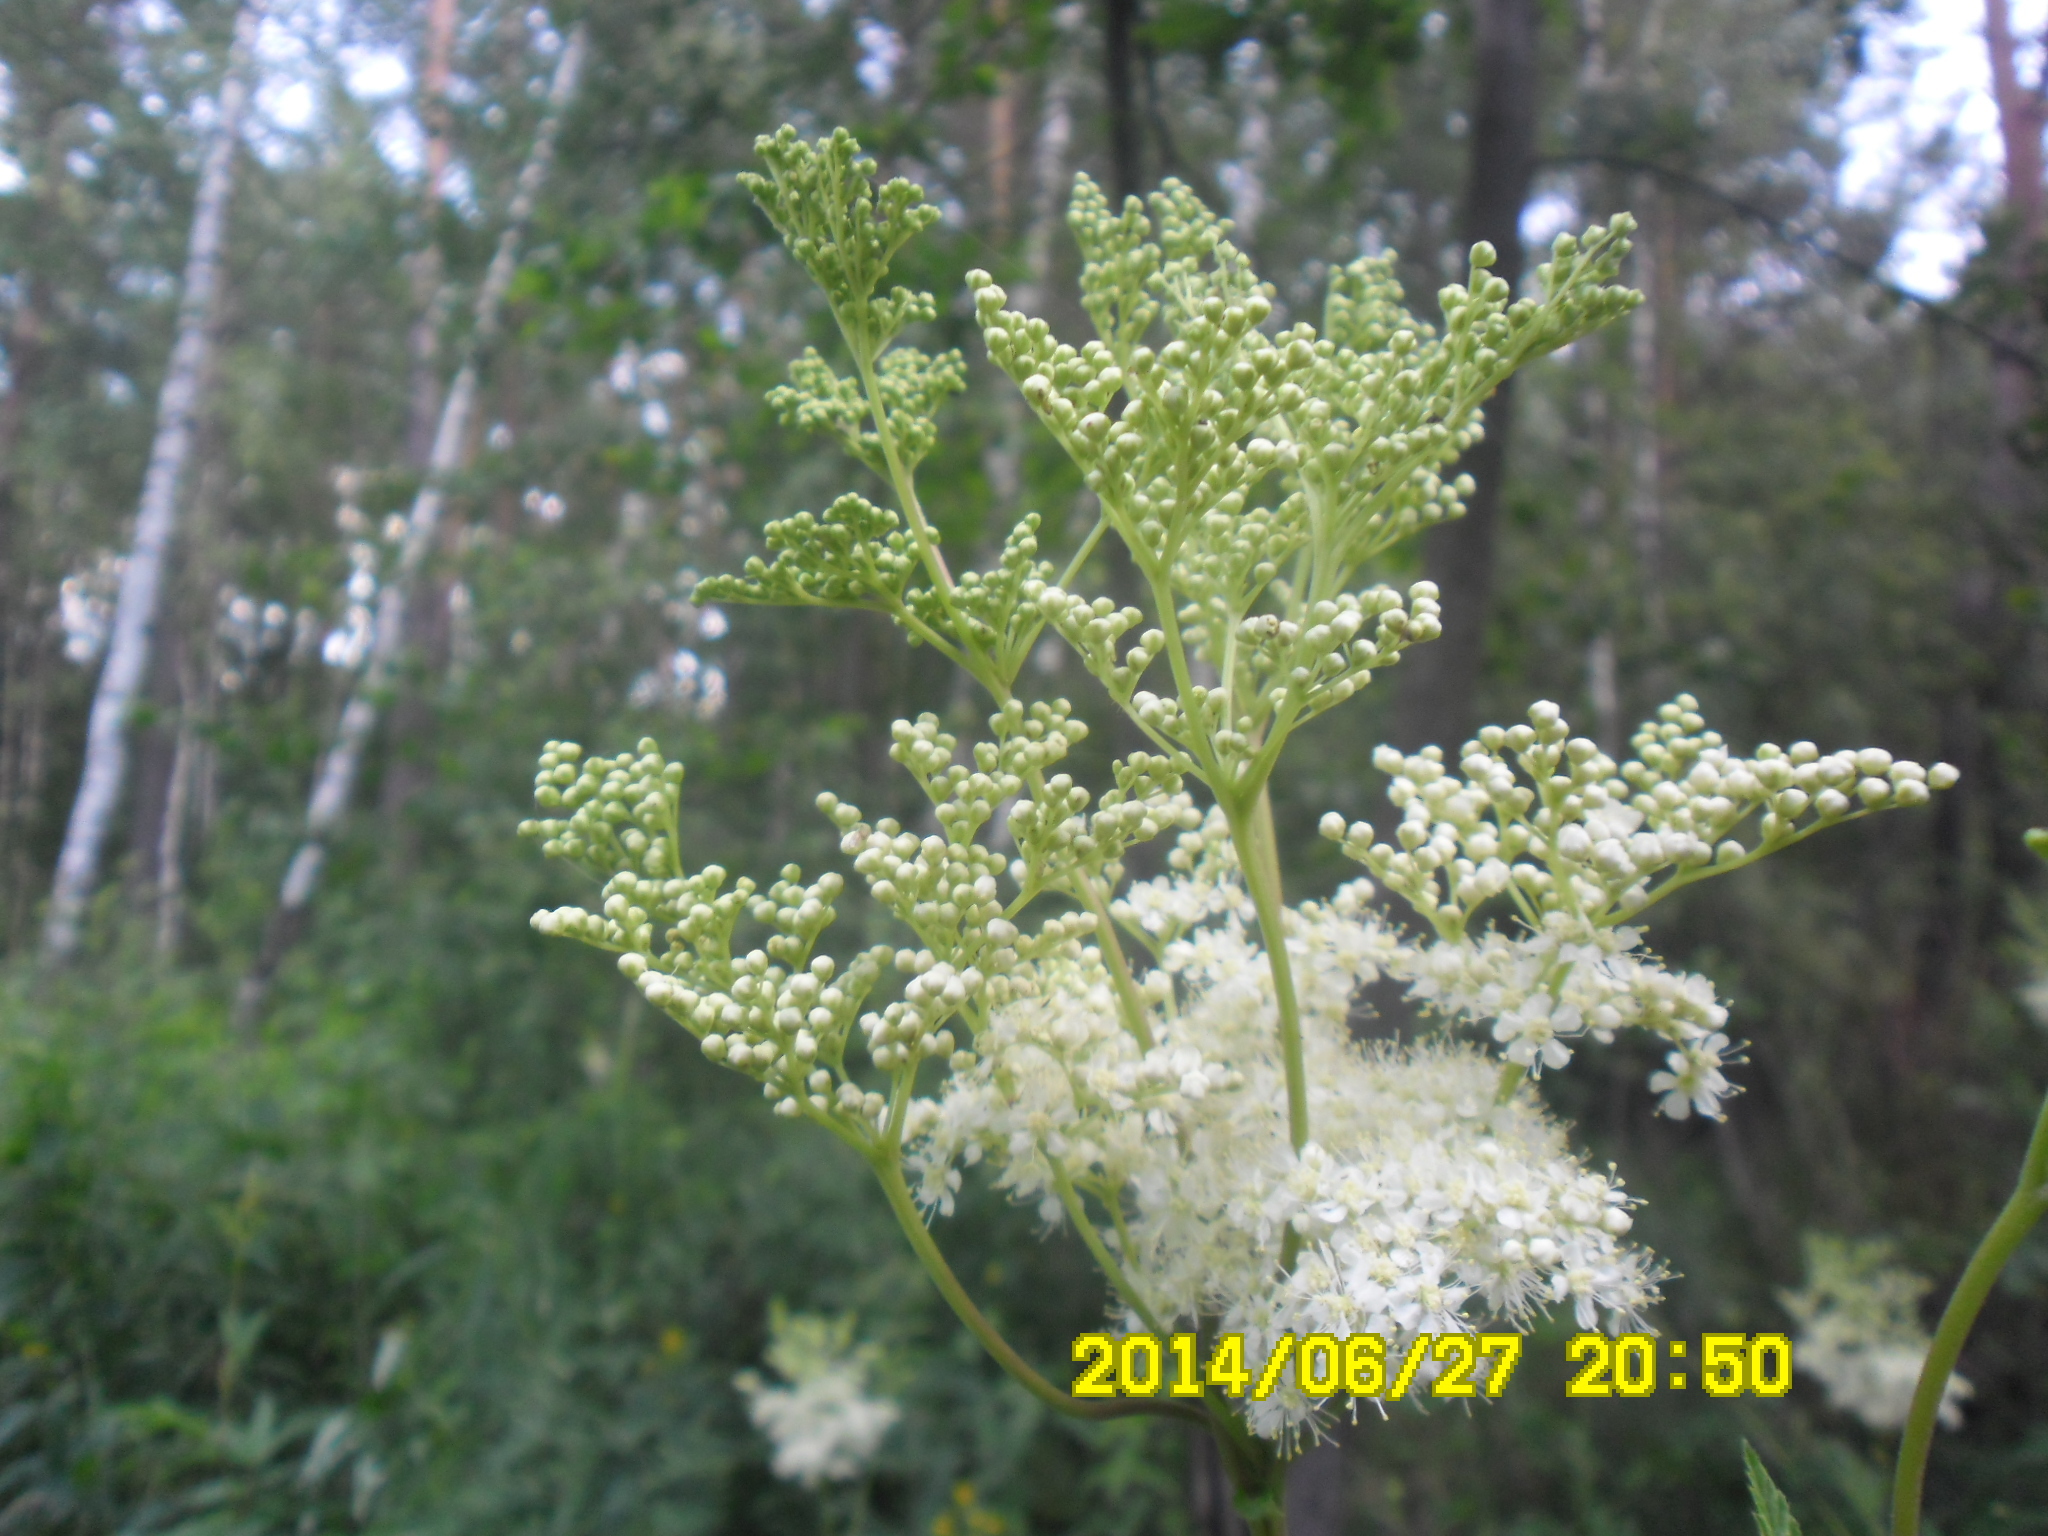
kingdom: Plantae
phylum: Tracheophyta
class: Magnoliopsida
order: Rosales
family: Rosaceae
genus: Filipendula
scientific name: Filipendula ulmaria
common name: Meadowsweet
